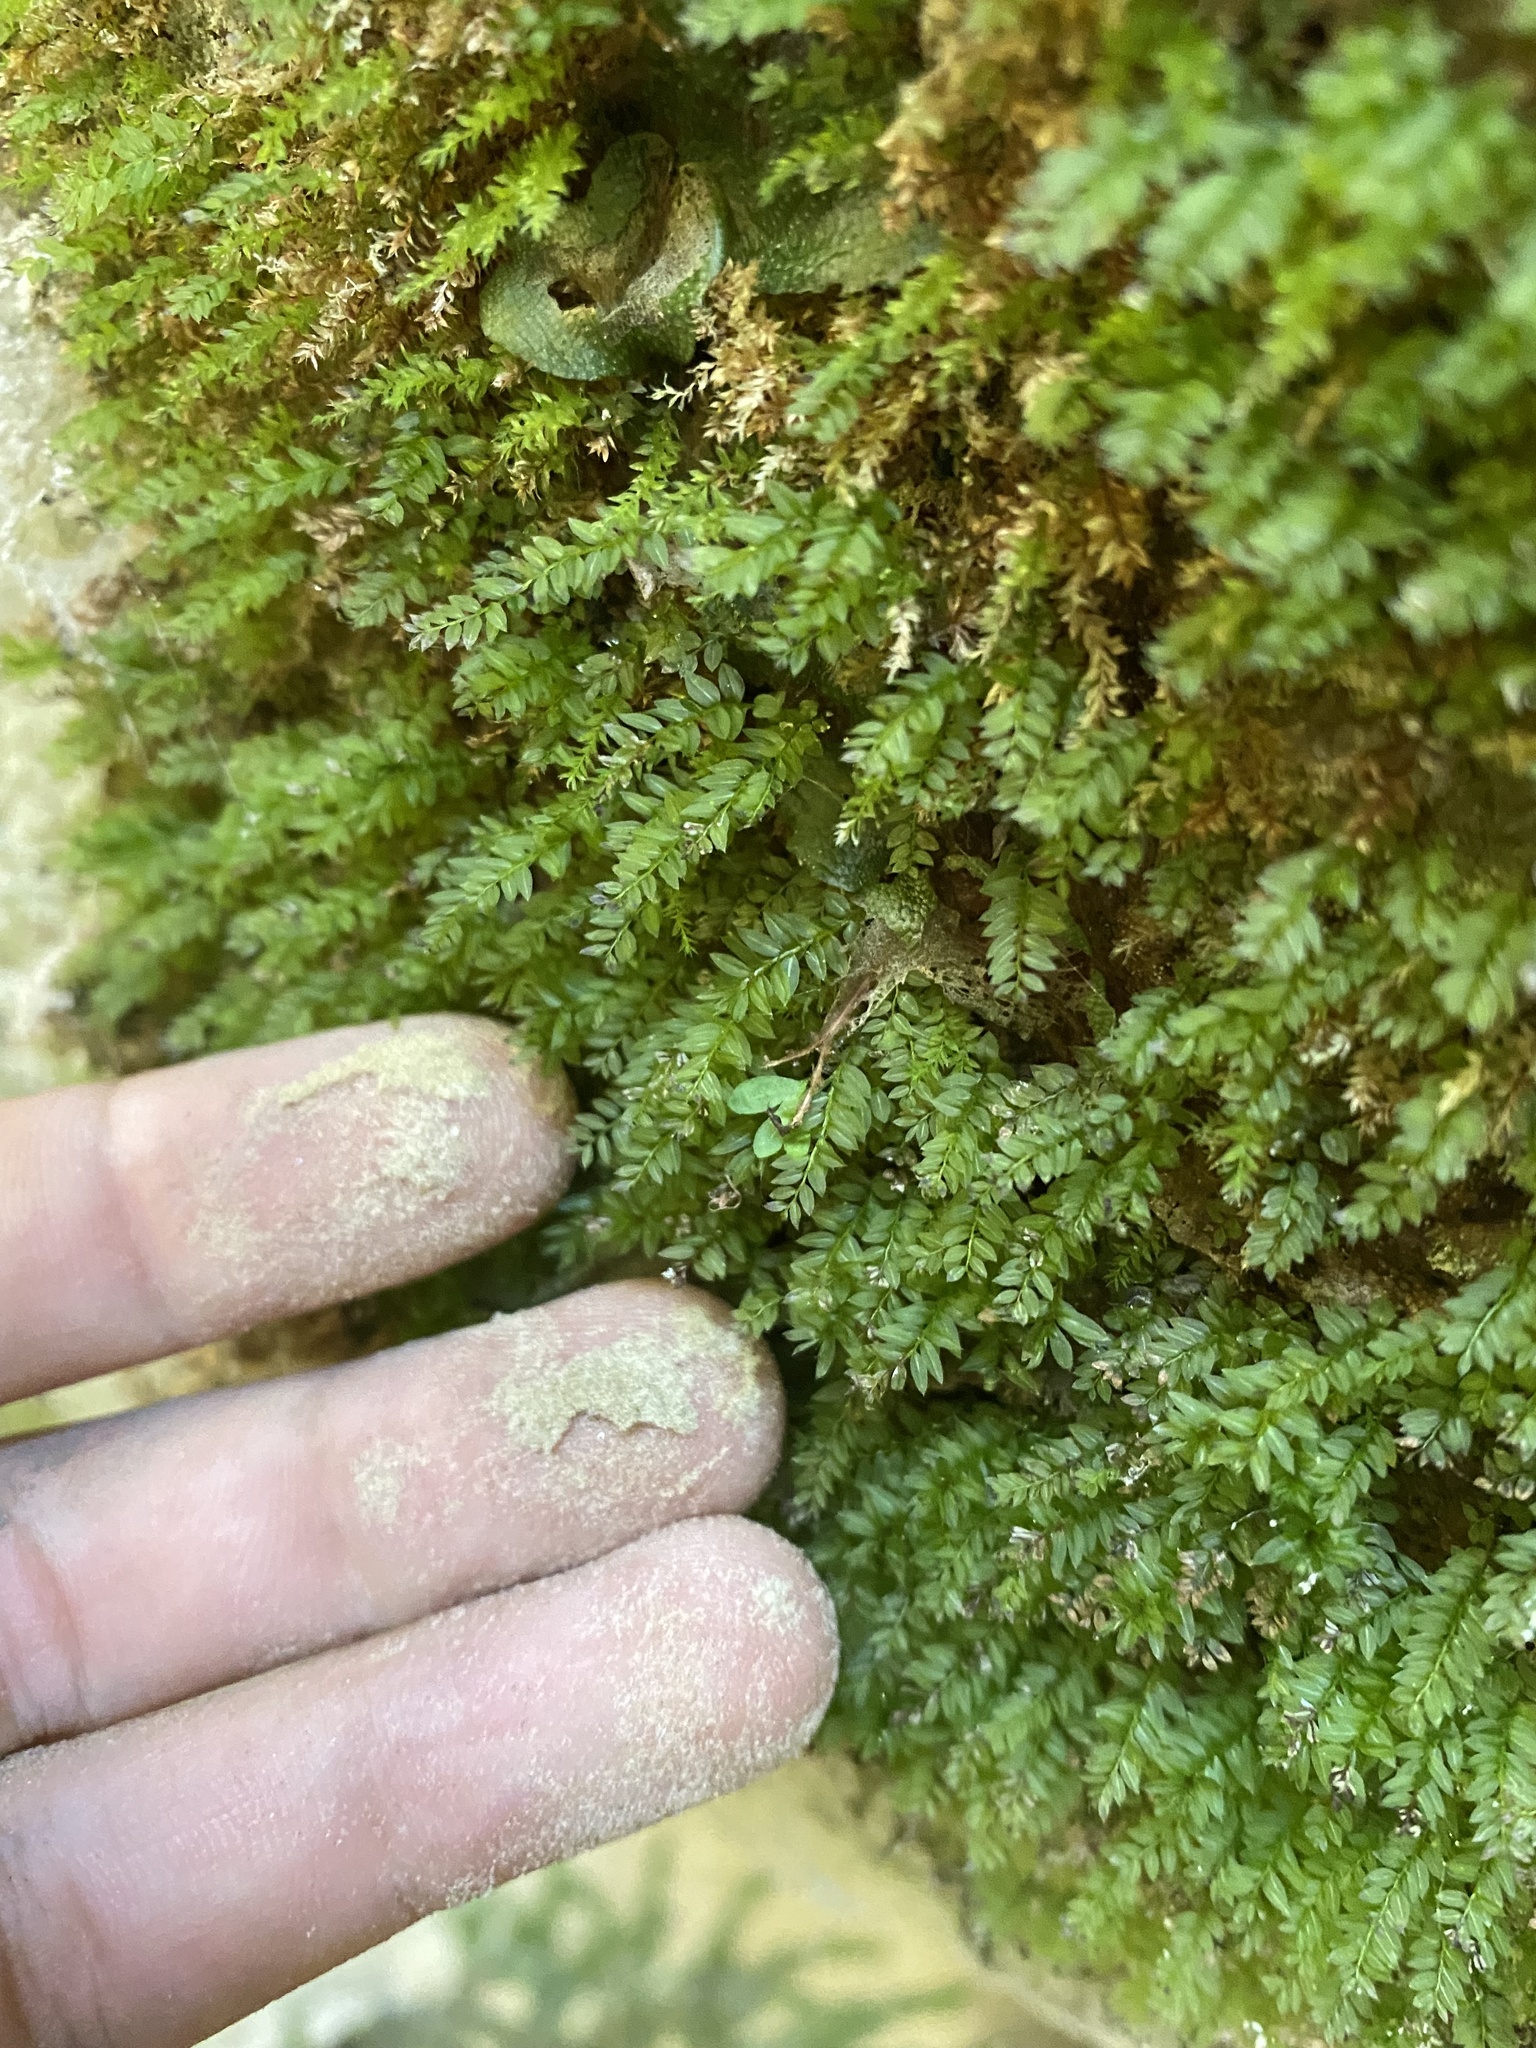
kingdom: Plantae
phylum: Bryophyta
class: Bryopsida
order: Bryales
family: Mniaceae
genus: Mnium
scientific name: Mnium stellare
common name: Star leafy moss
